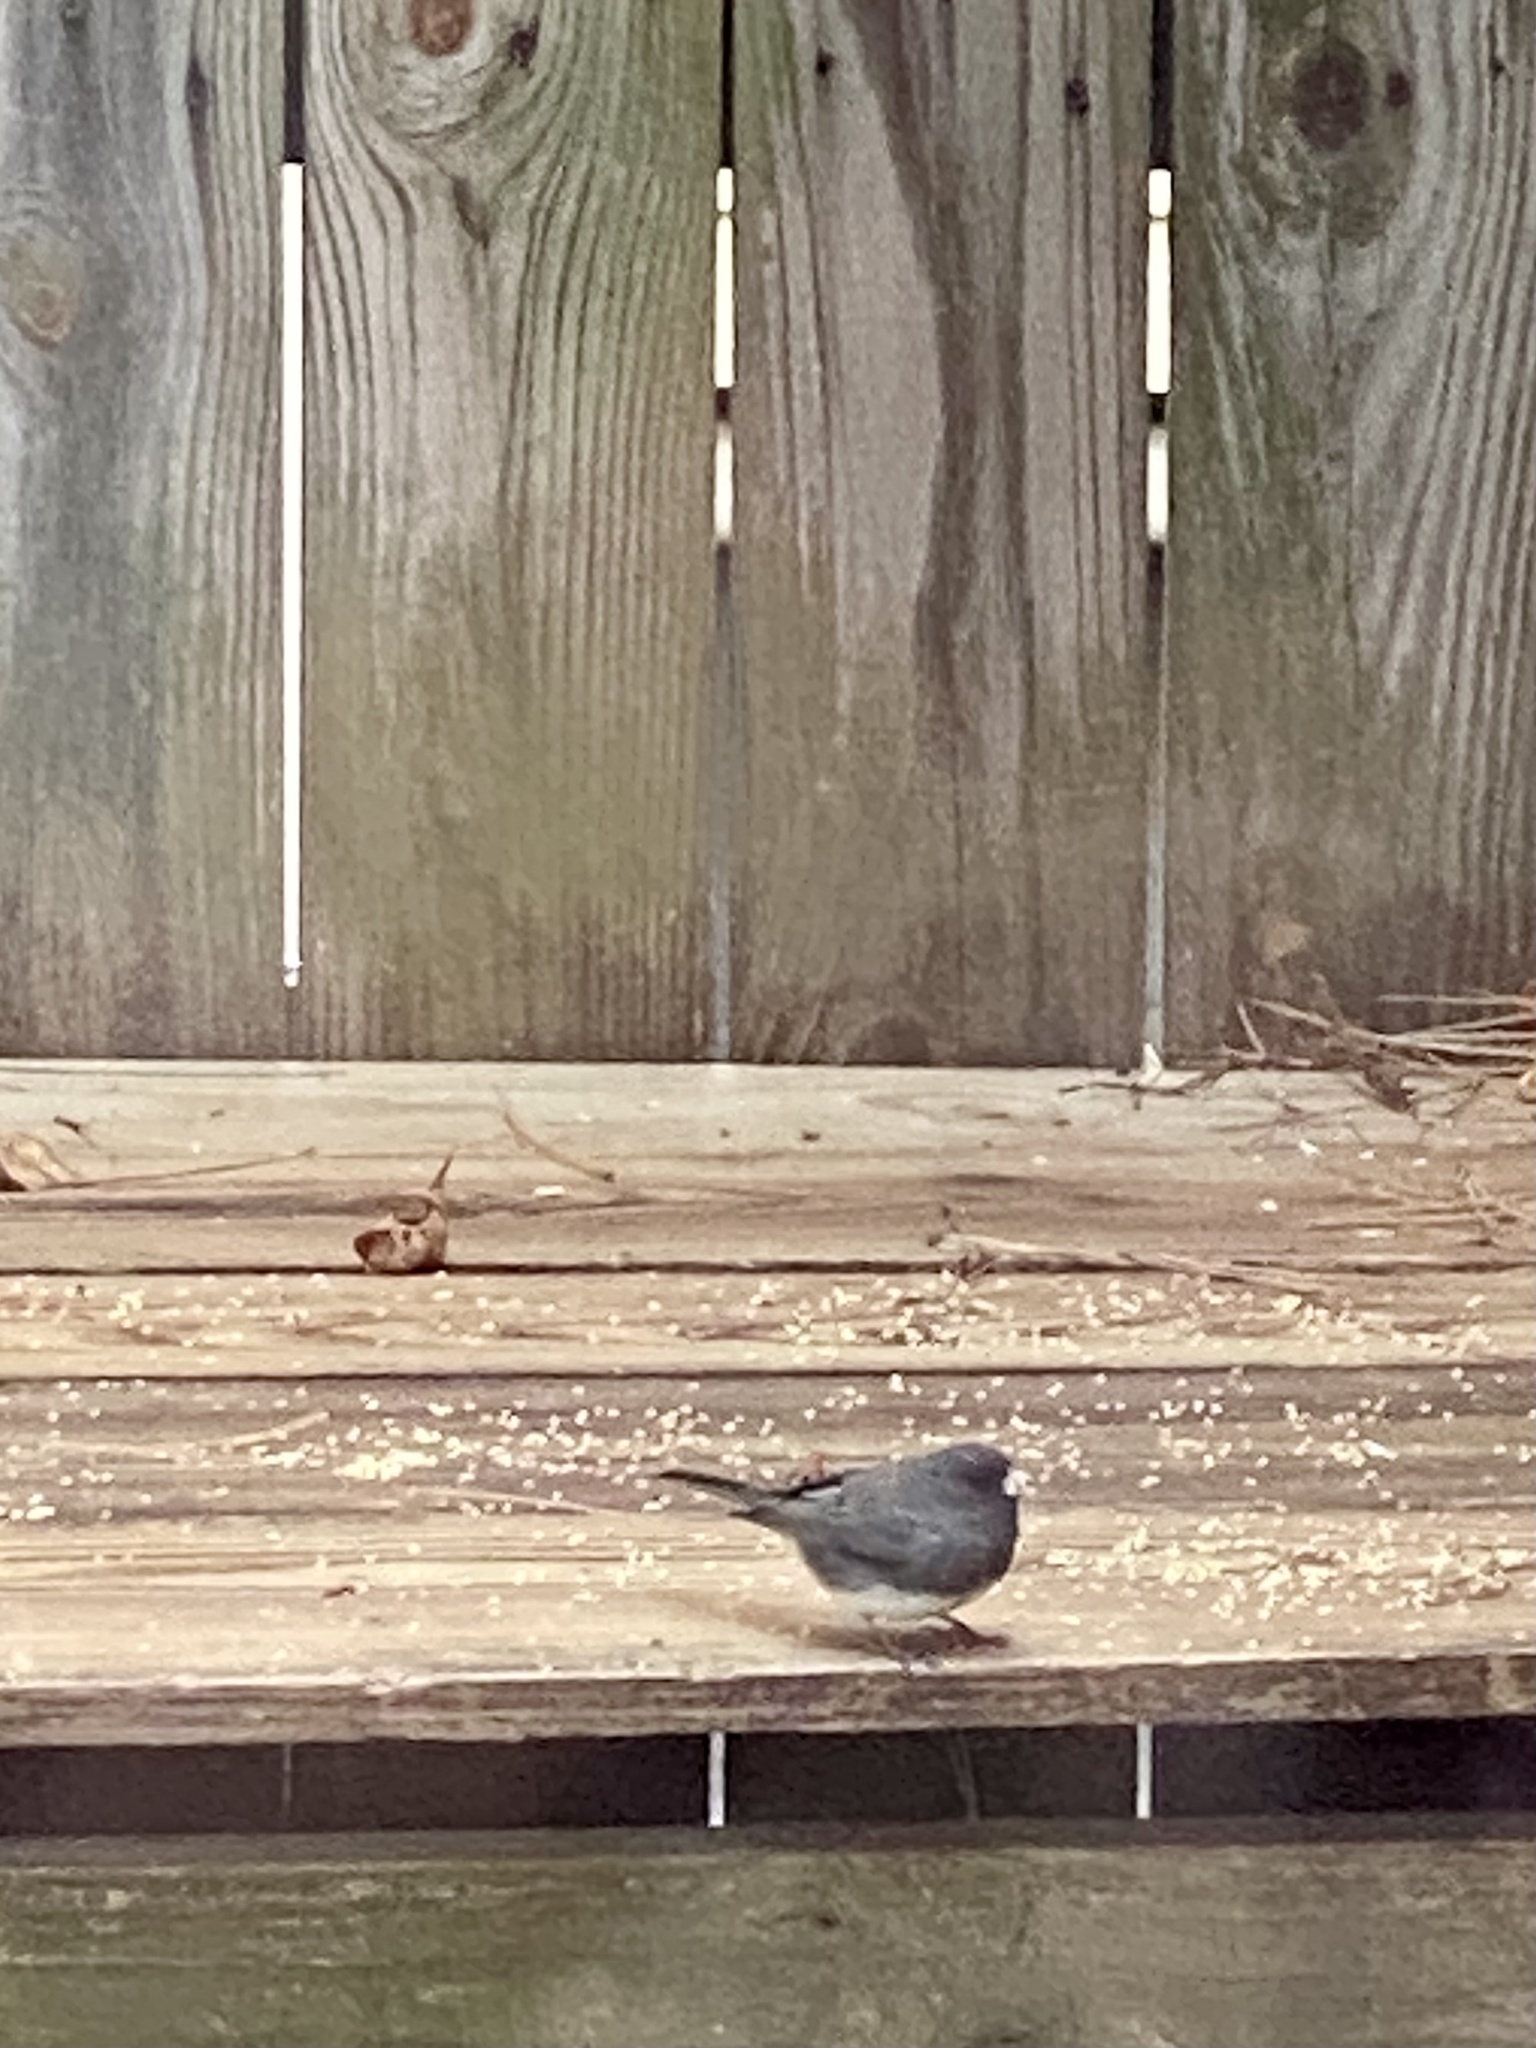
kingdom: Animalia
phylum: Chordata
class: Aves
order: Passeriformes
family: Passerellidae
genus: Junco
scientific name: Junco hyemalis
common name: Dark-eyed junco
